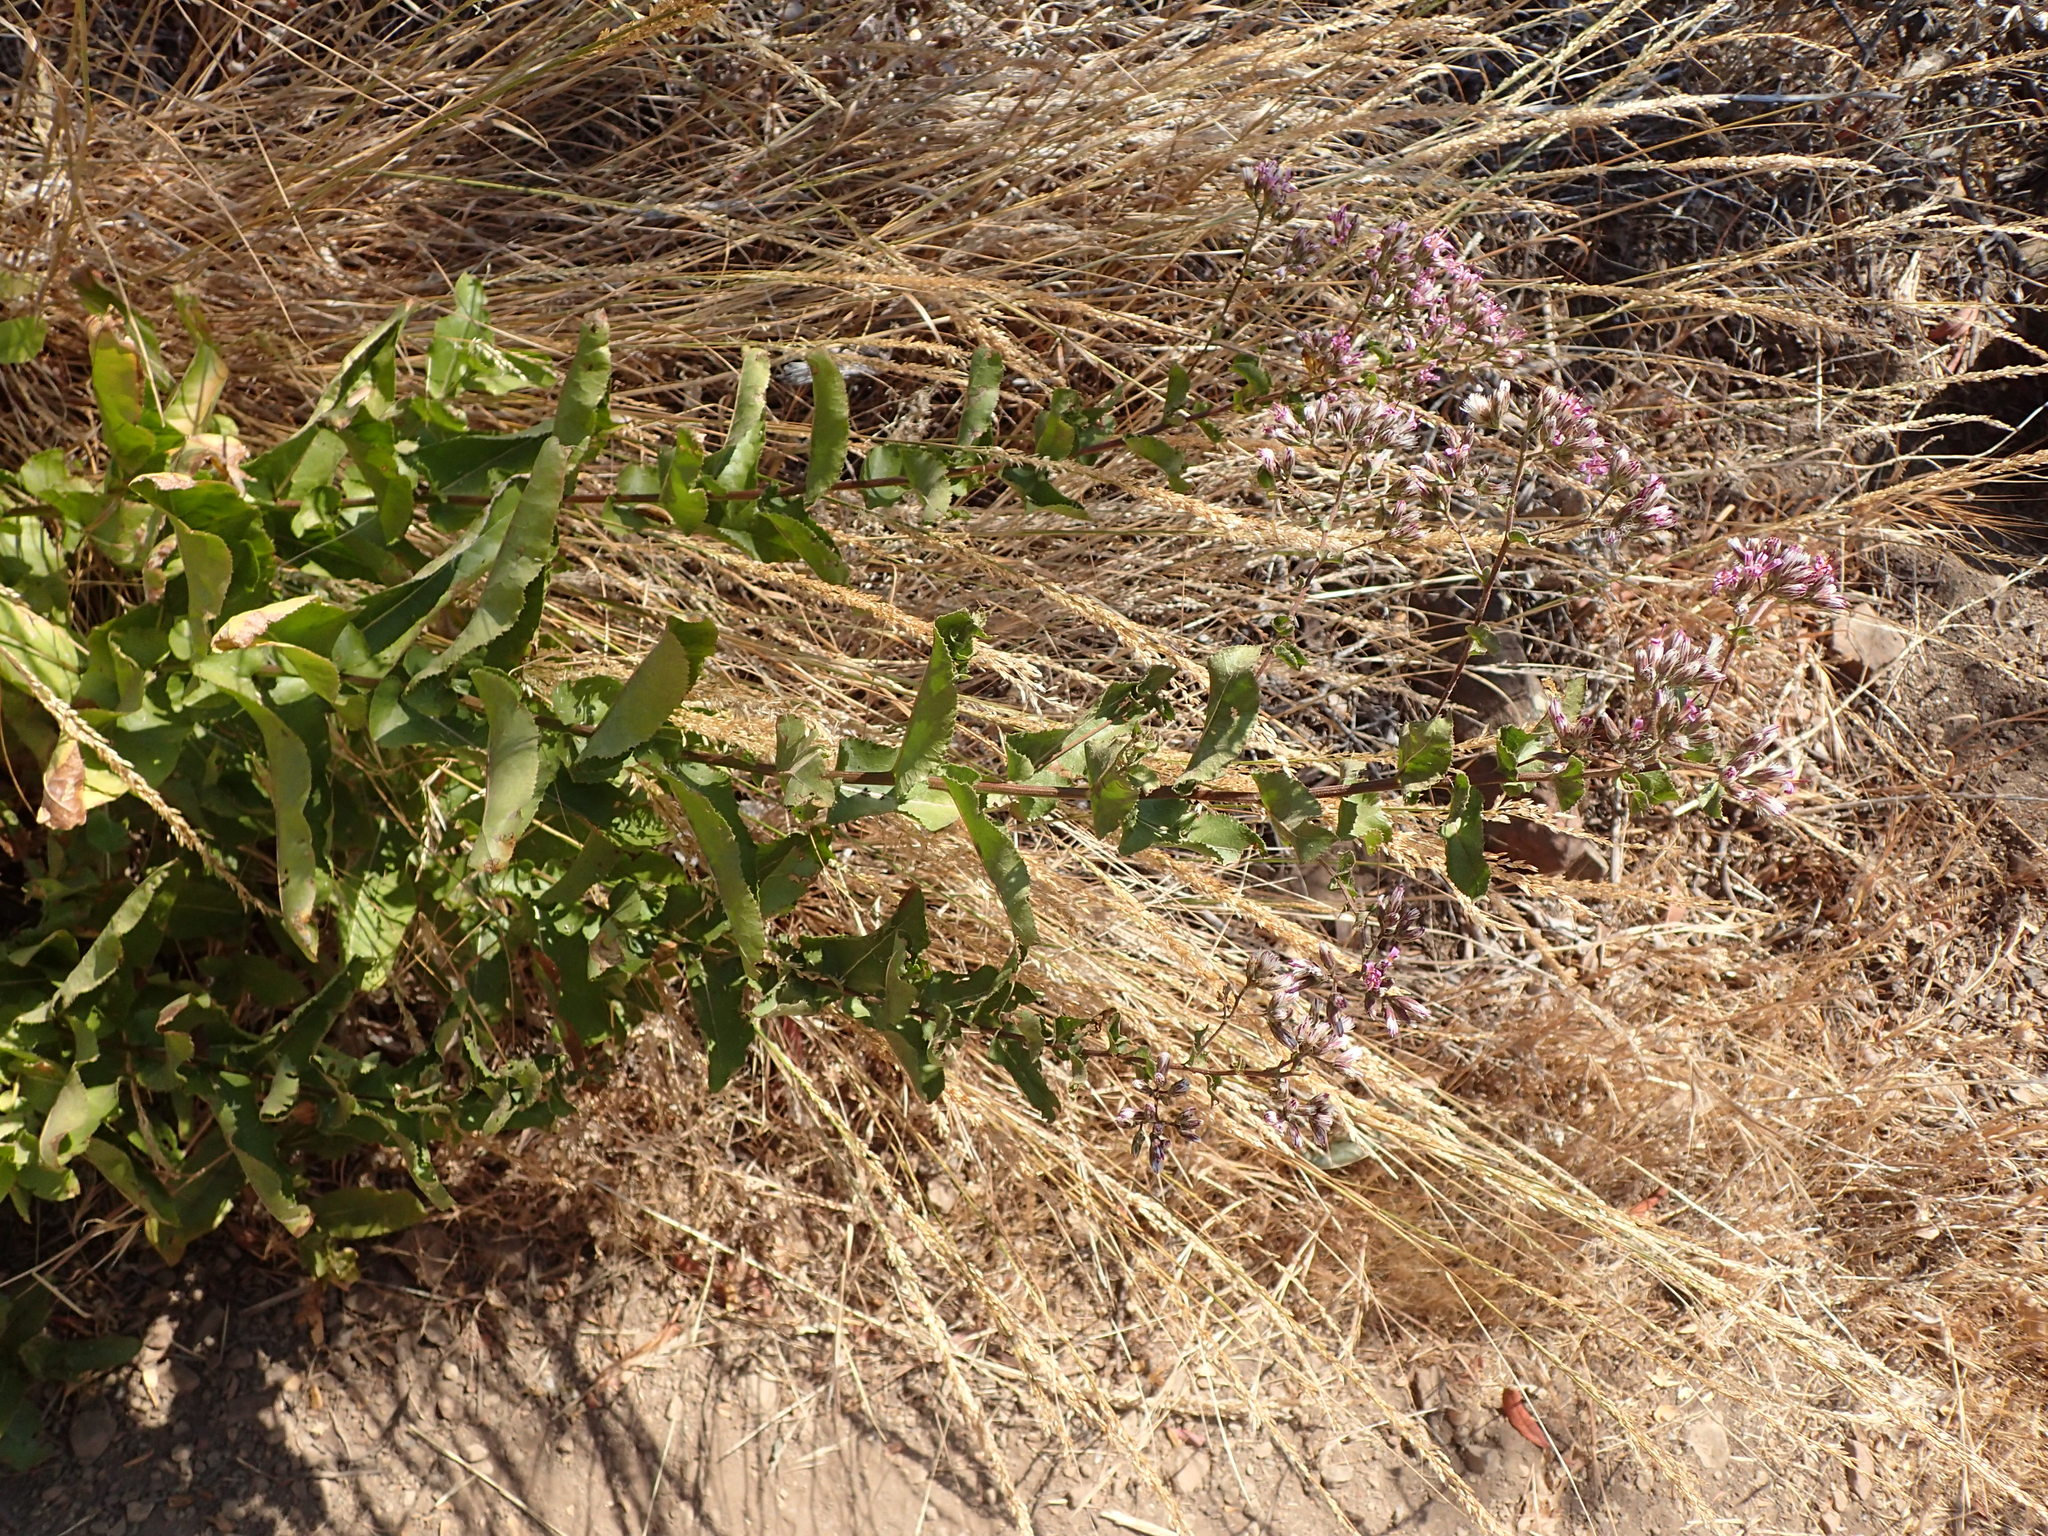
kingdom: Plantae
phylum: Tracheophyta
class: Magnoliopsida
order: Asterales
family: Asteraceae
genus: Acourtia
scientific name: Acourtia microcephala
